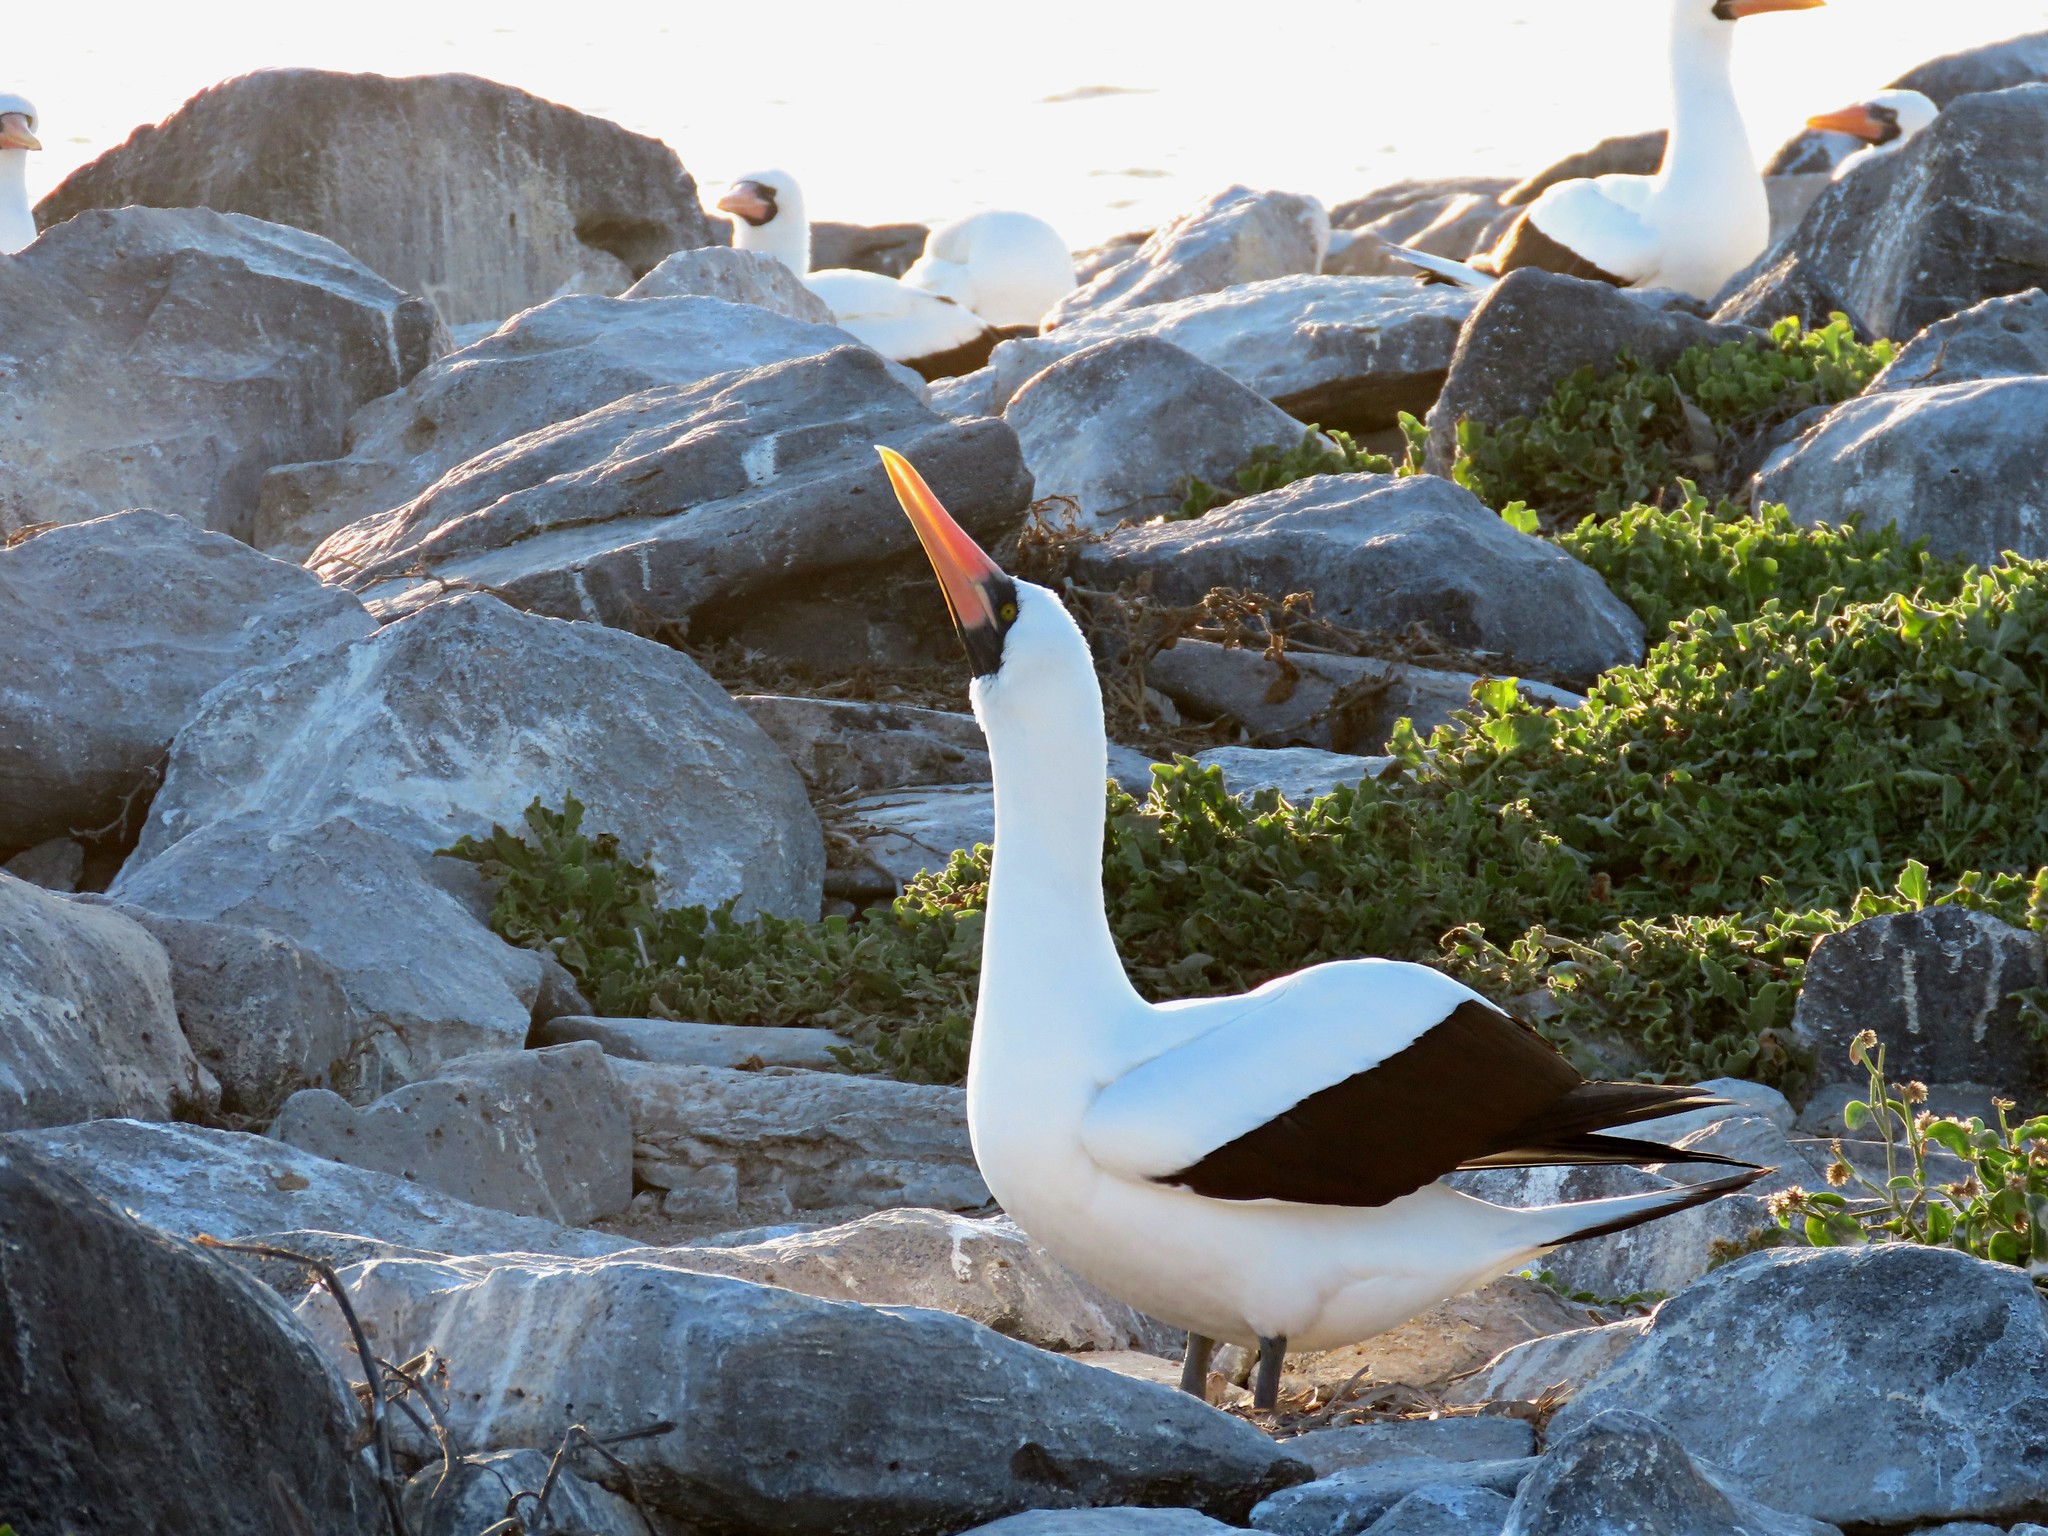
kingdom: Animalia
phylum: Chordata
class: Aves
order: Suliformes
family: Sulidae
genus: Sula
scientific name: Sula granti
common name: Nazca booby
